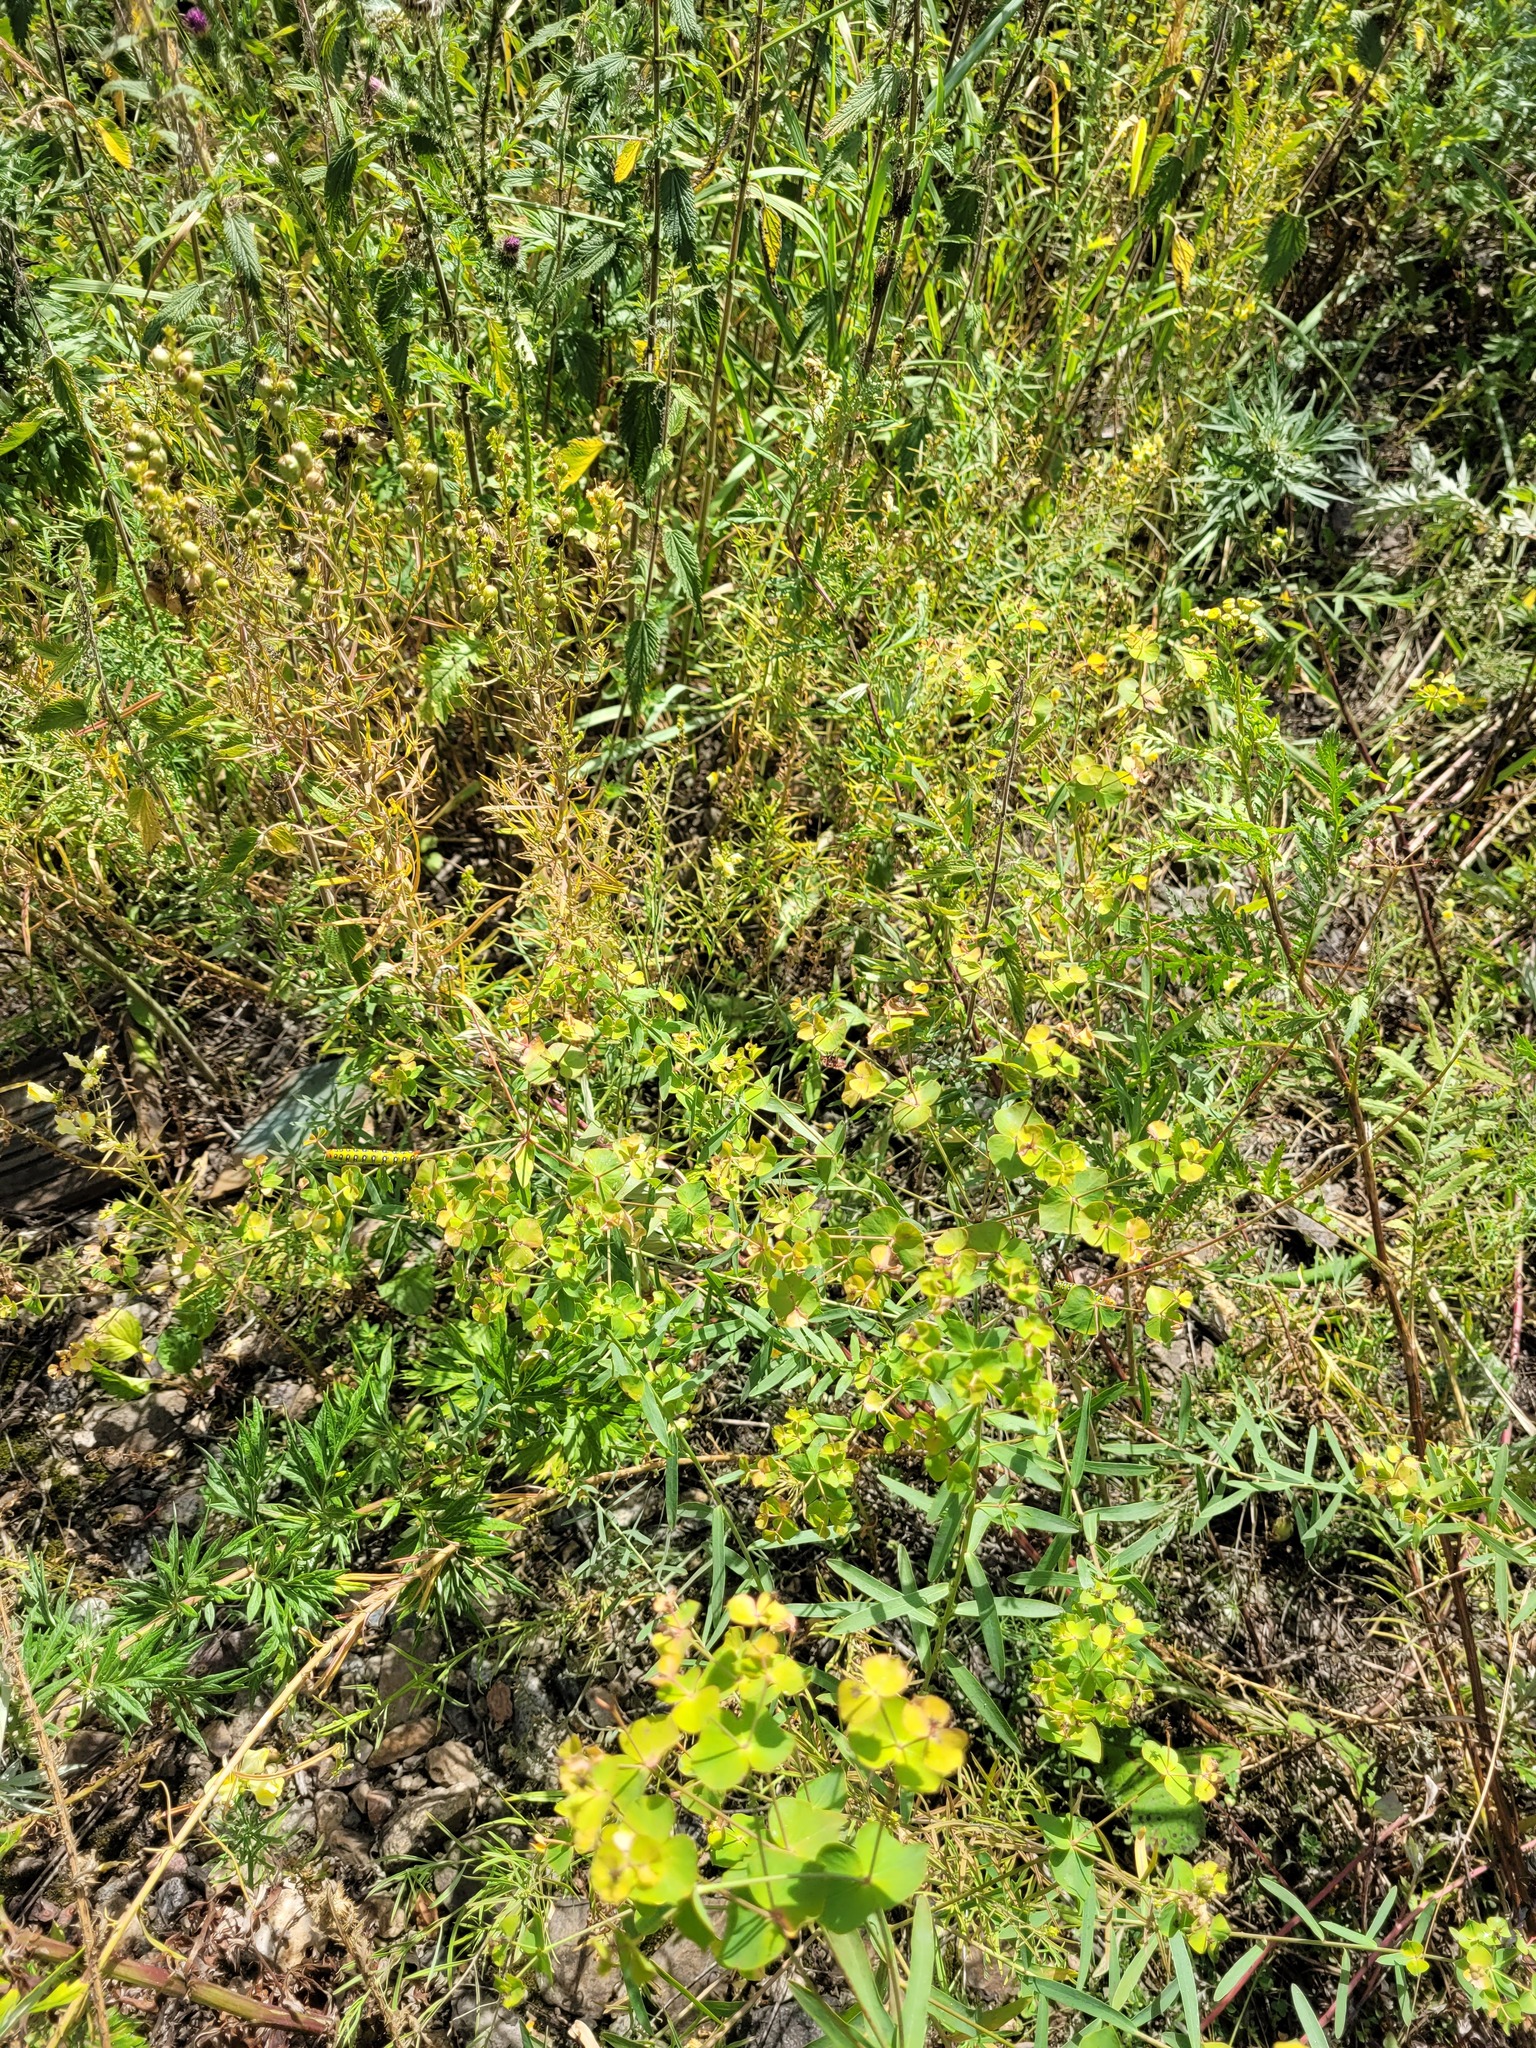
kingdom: Plantae
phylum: Tracheophyta
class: Magnoliopsida
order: Malpighiales
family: Euphorbiaceae
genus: Euphorbia
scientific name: Euphorbia virgata
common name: Leafy spurge
